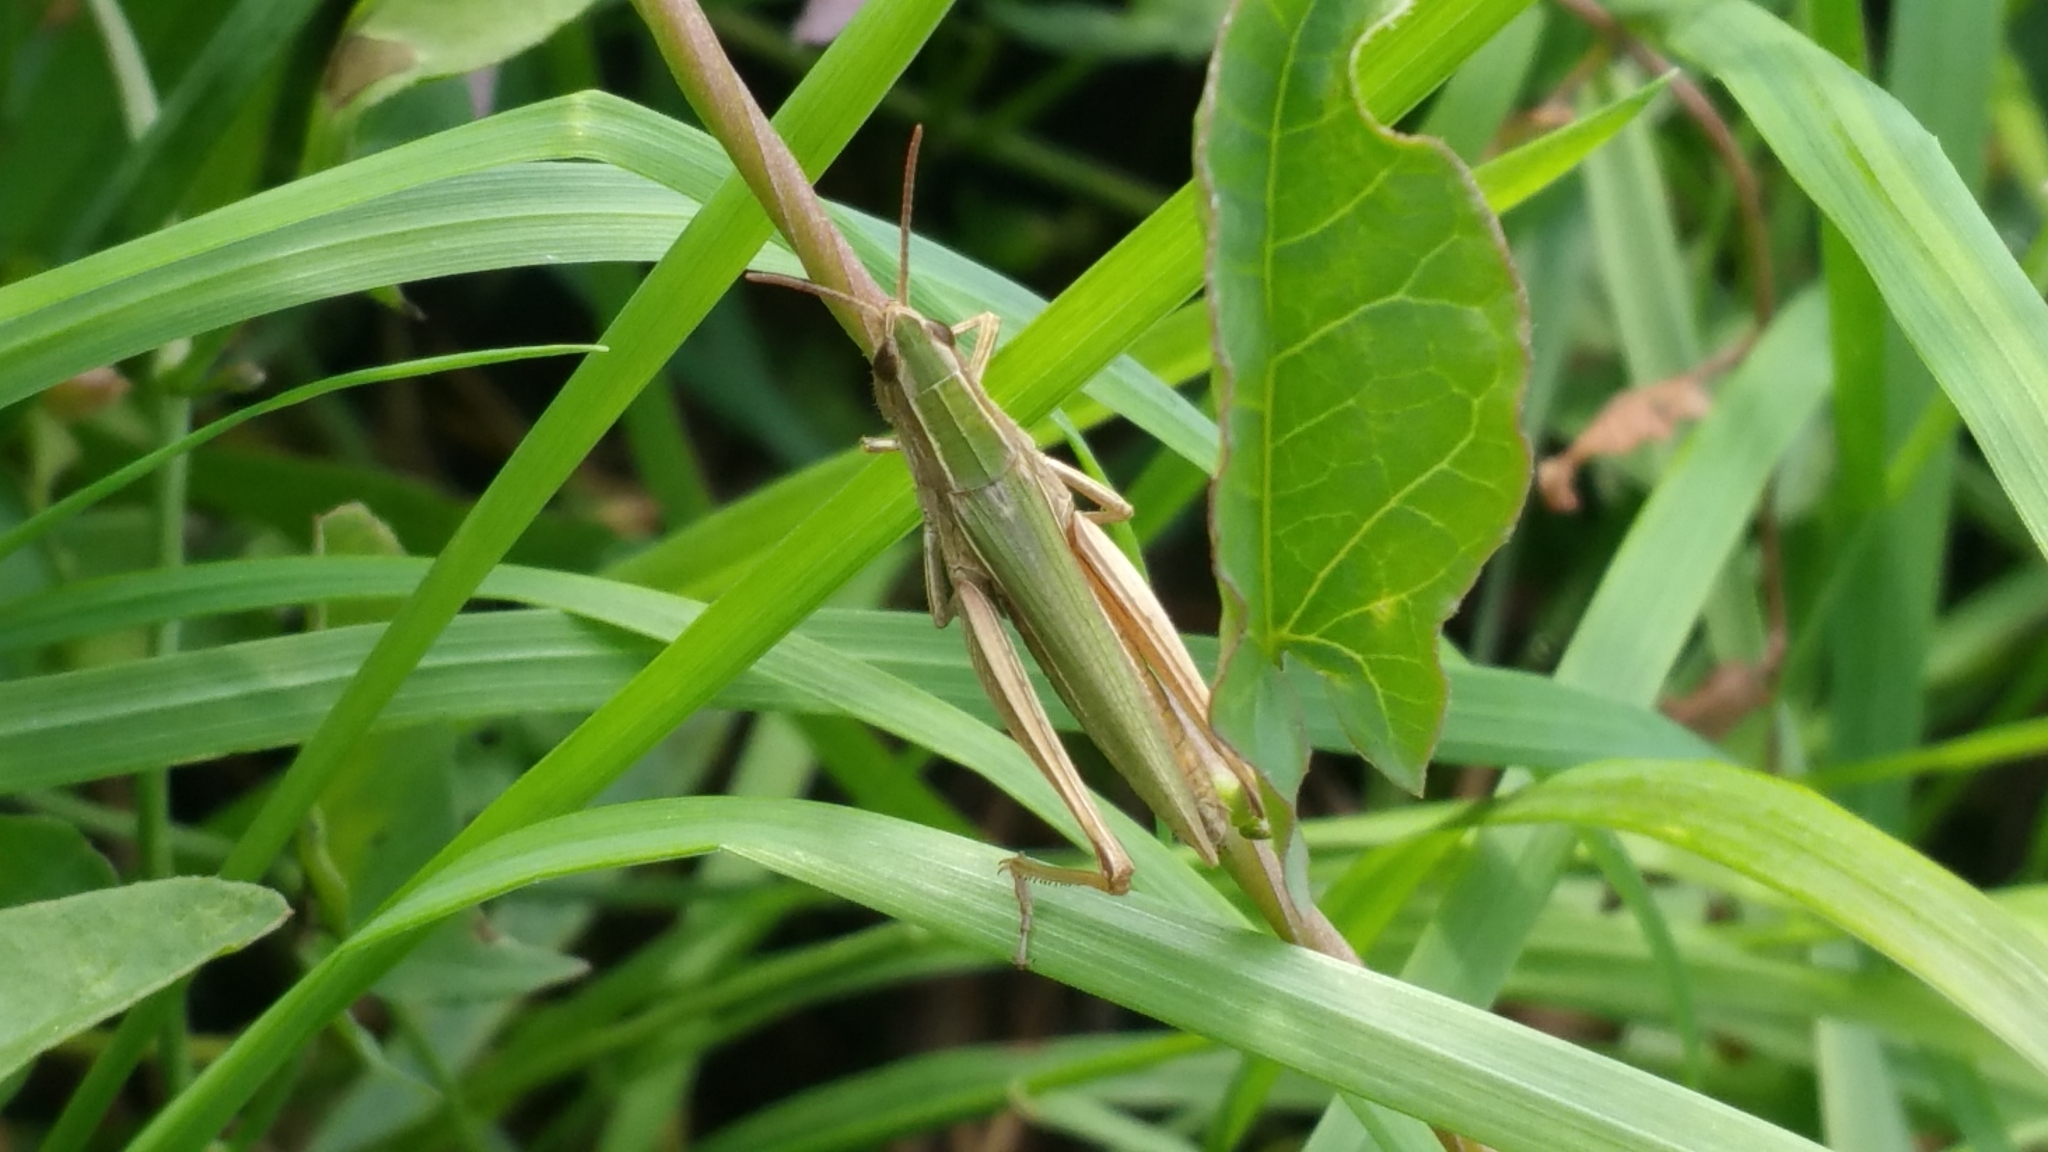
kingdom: Animalia
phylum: Arthropoda
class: Insecta
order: Orthoptera
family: Acrididae
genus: Chorthippus
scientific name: Chorthippus albomarginatus
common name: Lesser marsh grasshopper
